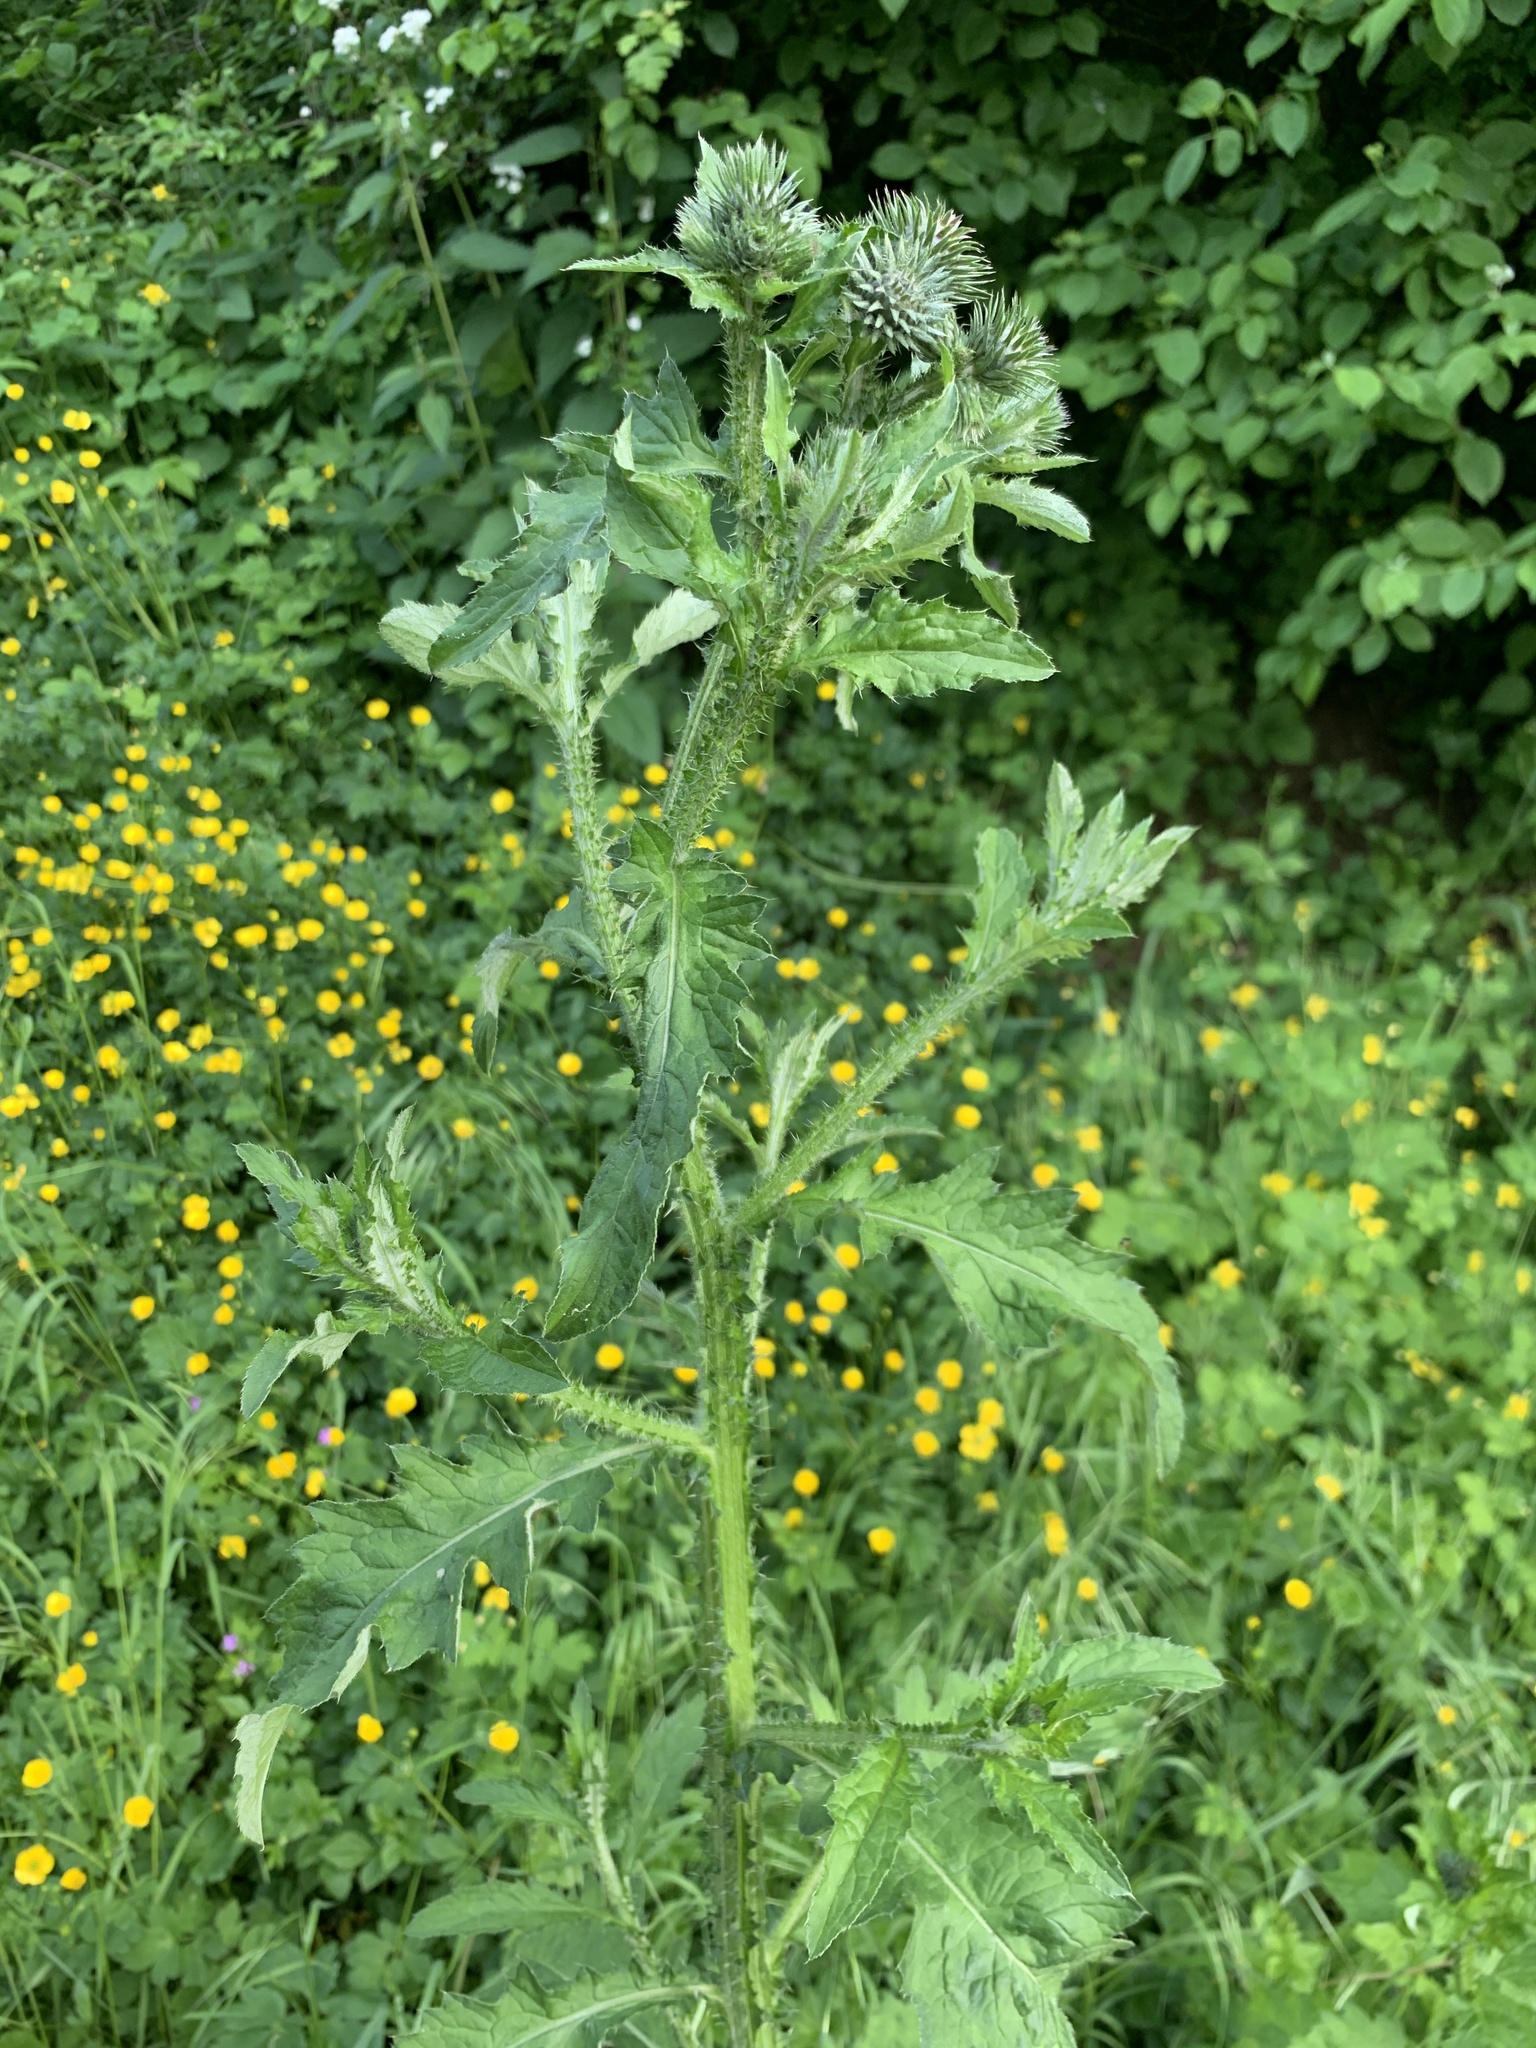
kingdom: Plantae
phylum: Tracheophyta
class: Magnoliopsida
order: Asterales
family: Asteraceae
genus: Carduus
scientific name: Carduus crispus
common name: Welted thistle
